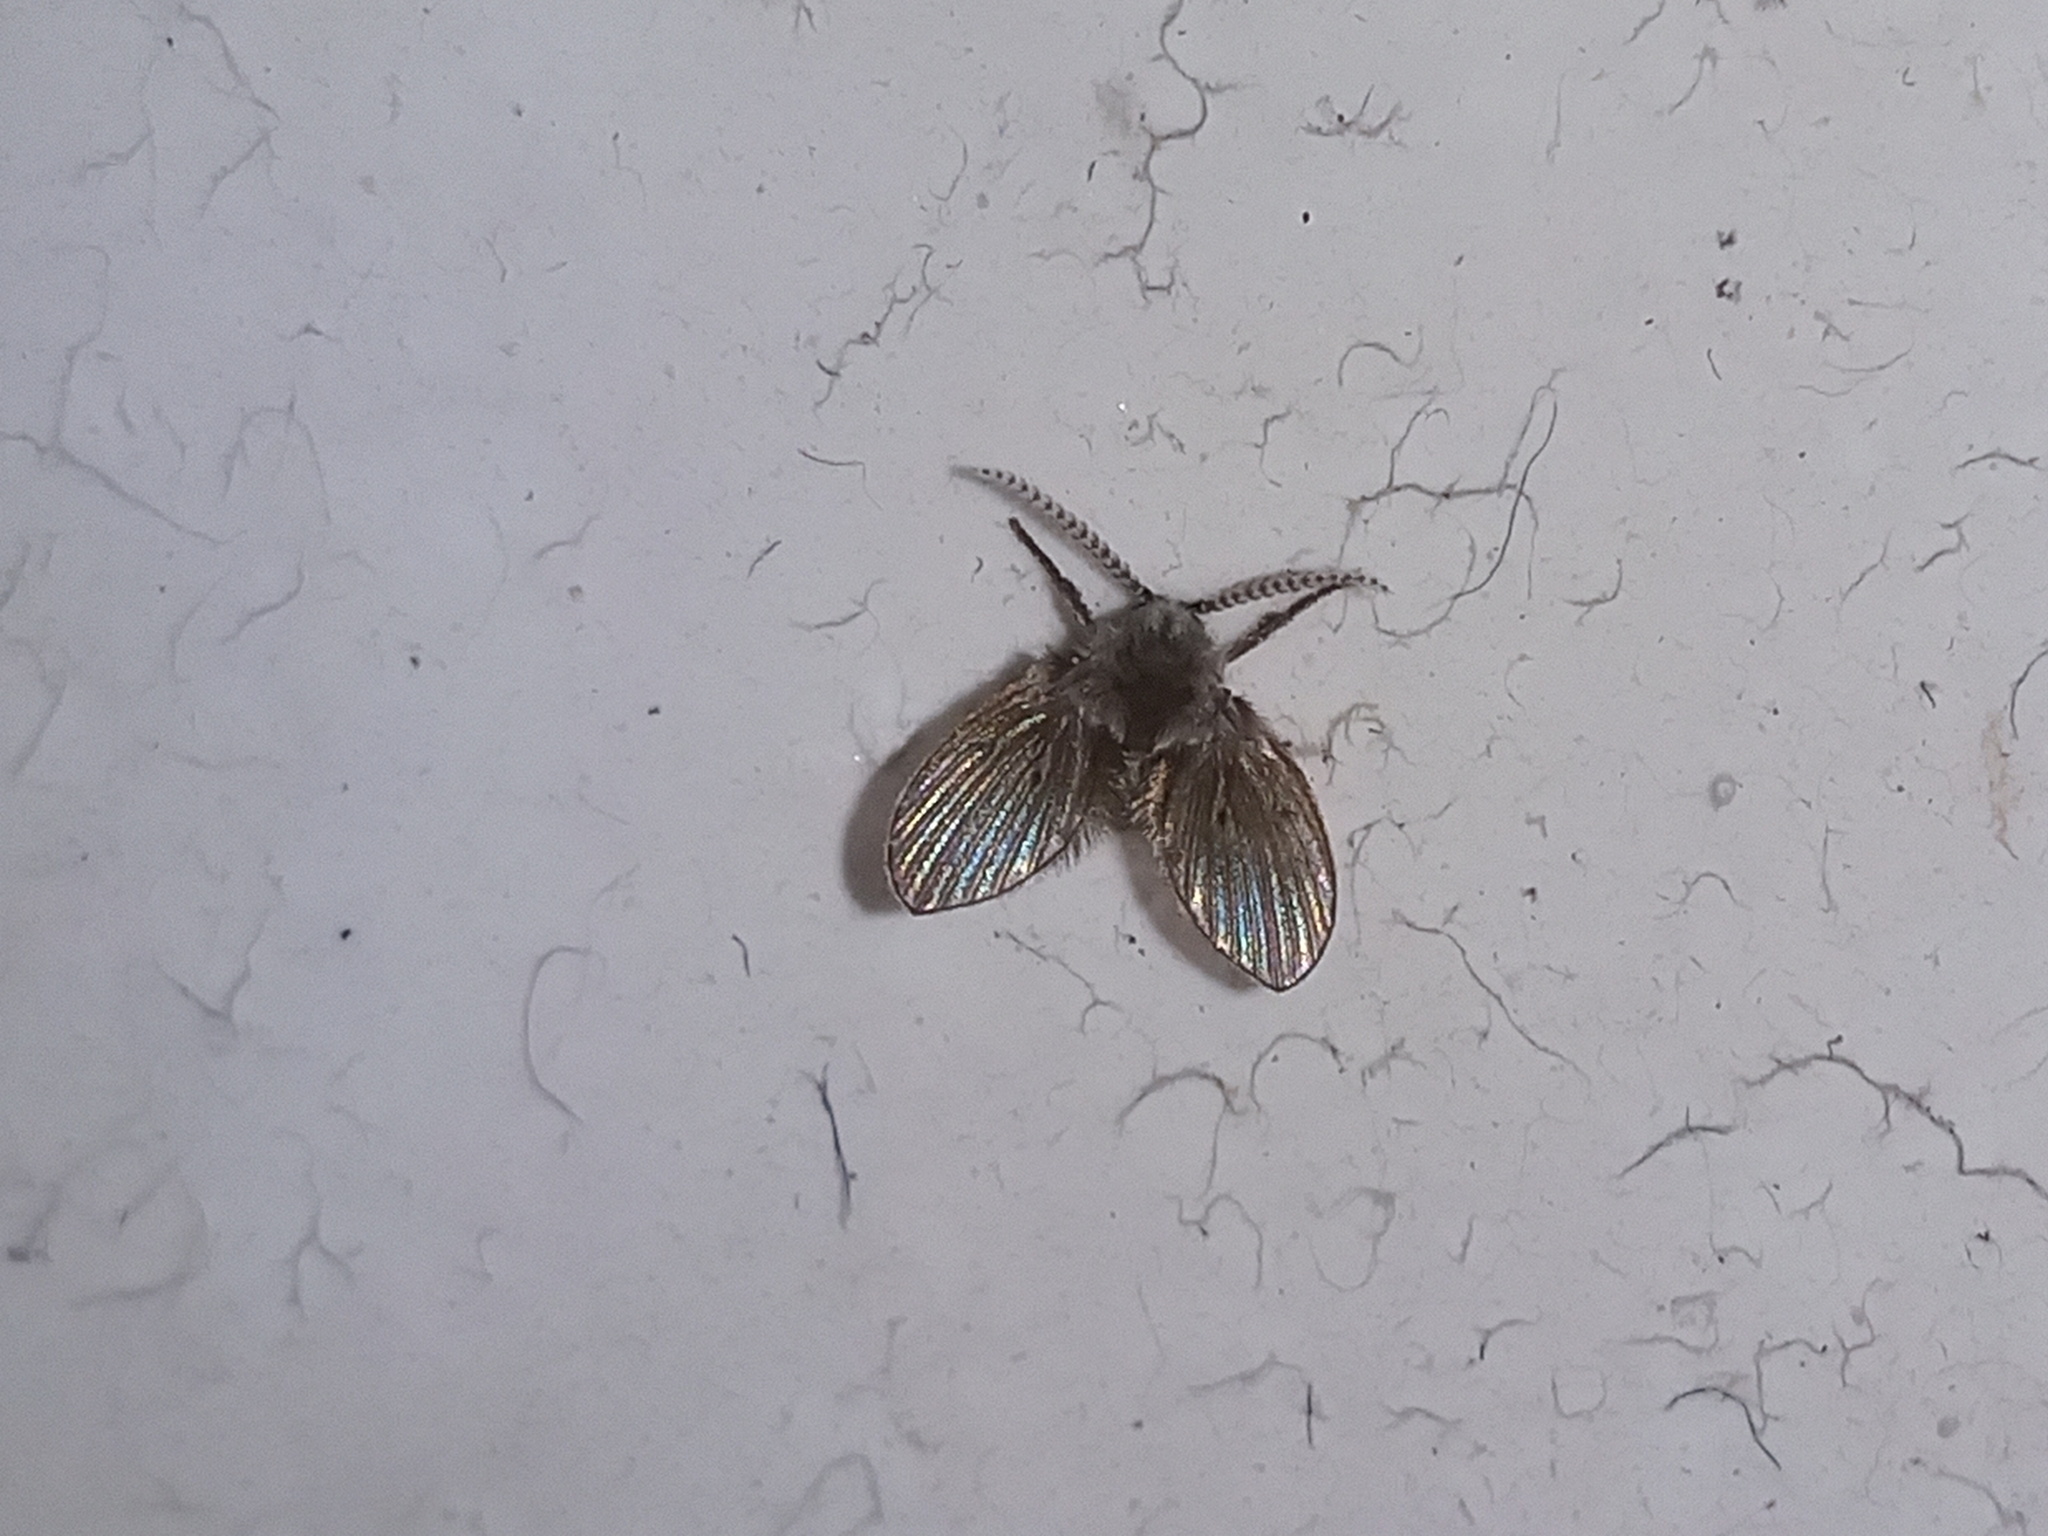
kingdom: Animalia
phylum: Arthropoda
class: Insecta
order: Diptera
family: Psychodidae
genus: Clogmia
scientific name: Clogmia albipunctatus
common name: White-spotted moth fly
